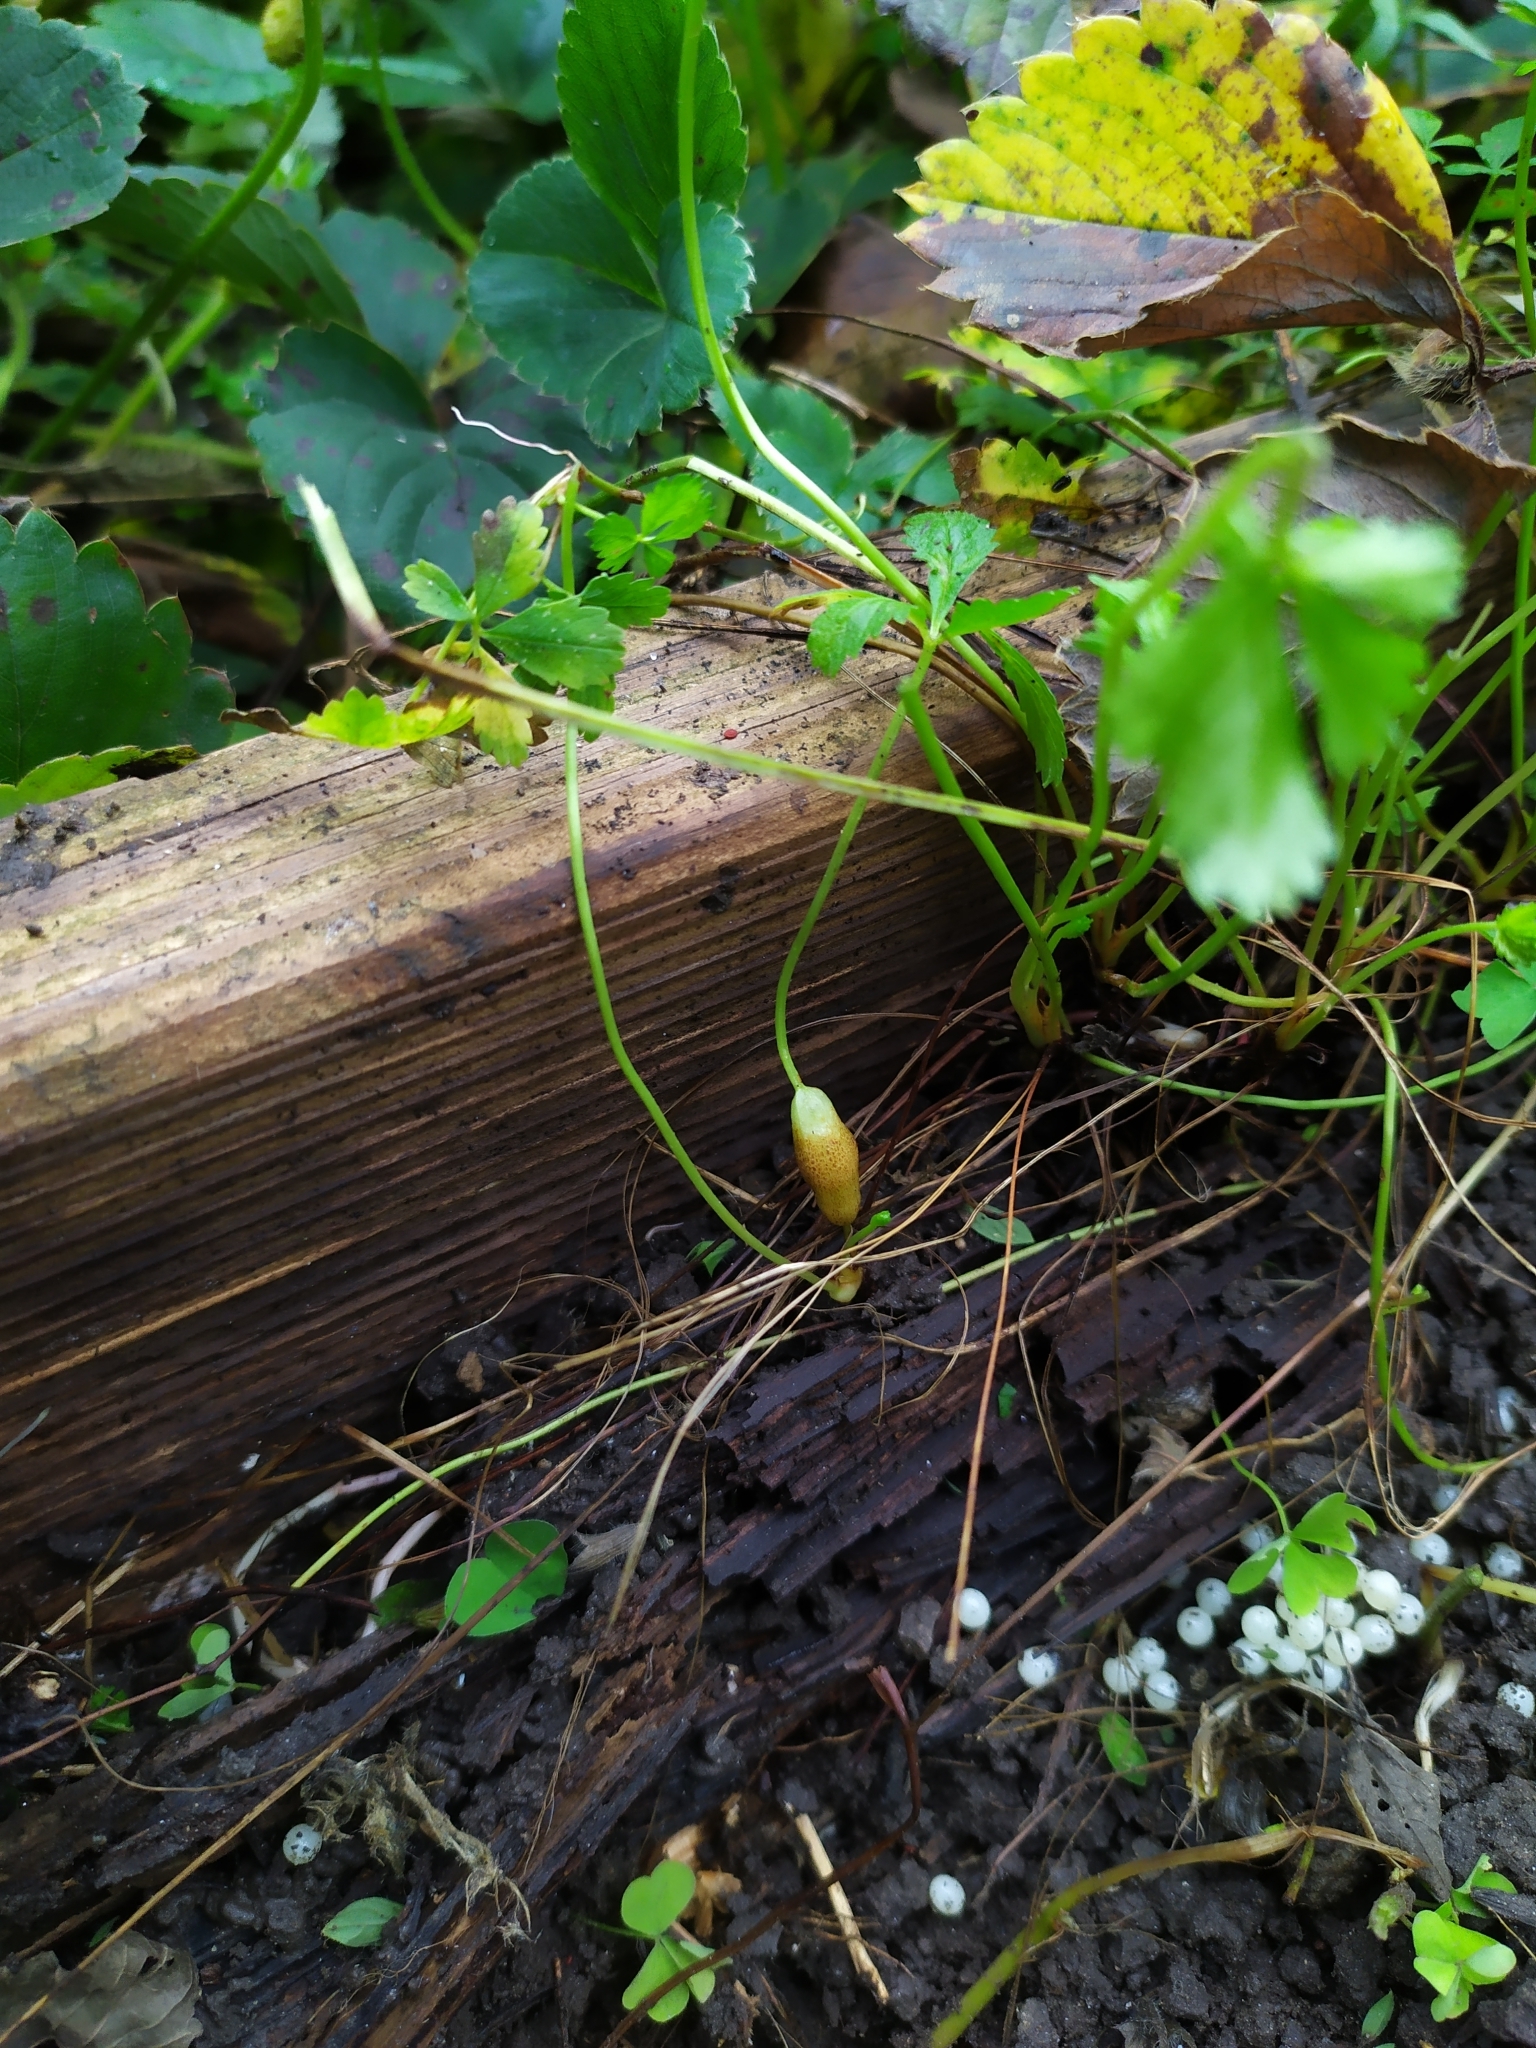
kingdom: Animalia
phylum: Arthropoda
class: Insecta
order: Hymenoptera
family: Cynipidae
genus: Xestophanes
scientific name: Xestophanes potentillae
